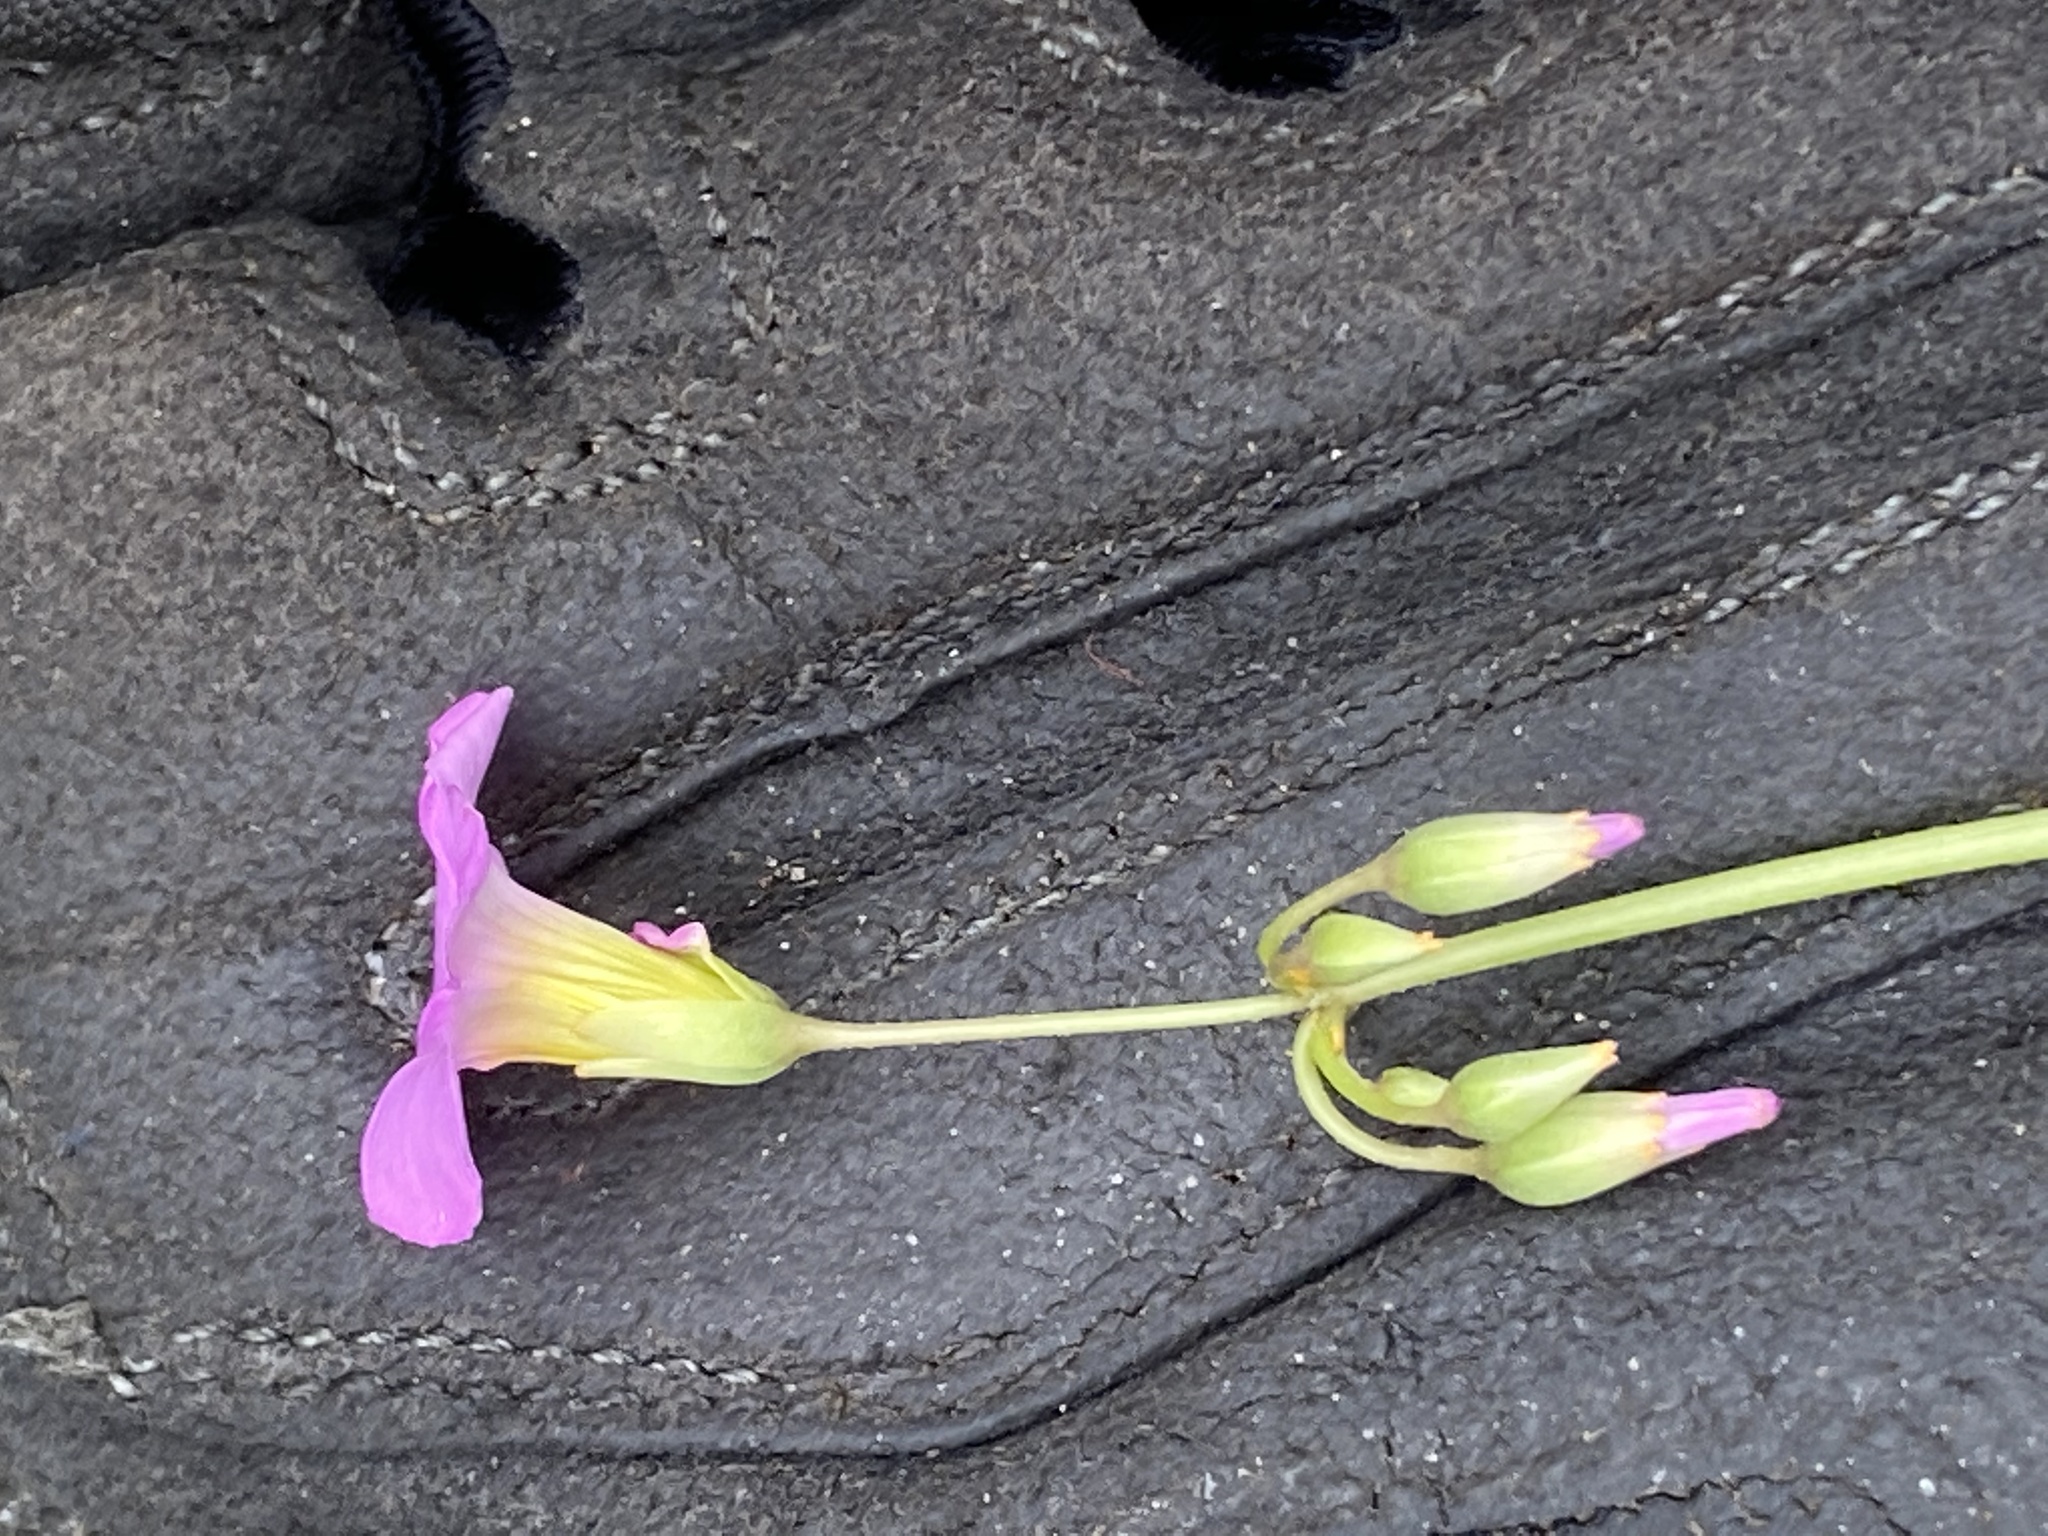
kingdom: Plantae
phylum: Tracheophyta
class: Magnoliopsida
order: Oxalidales
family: Oxalidaceae
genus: Oxalis
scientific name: Oxalis purpurascens
